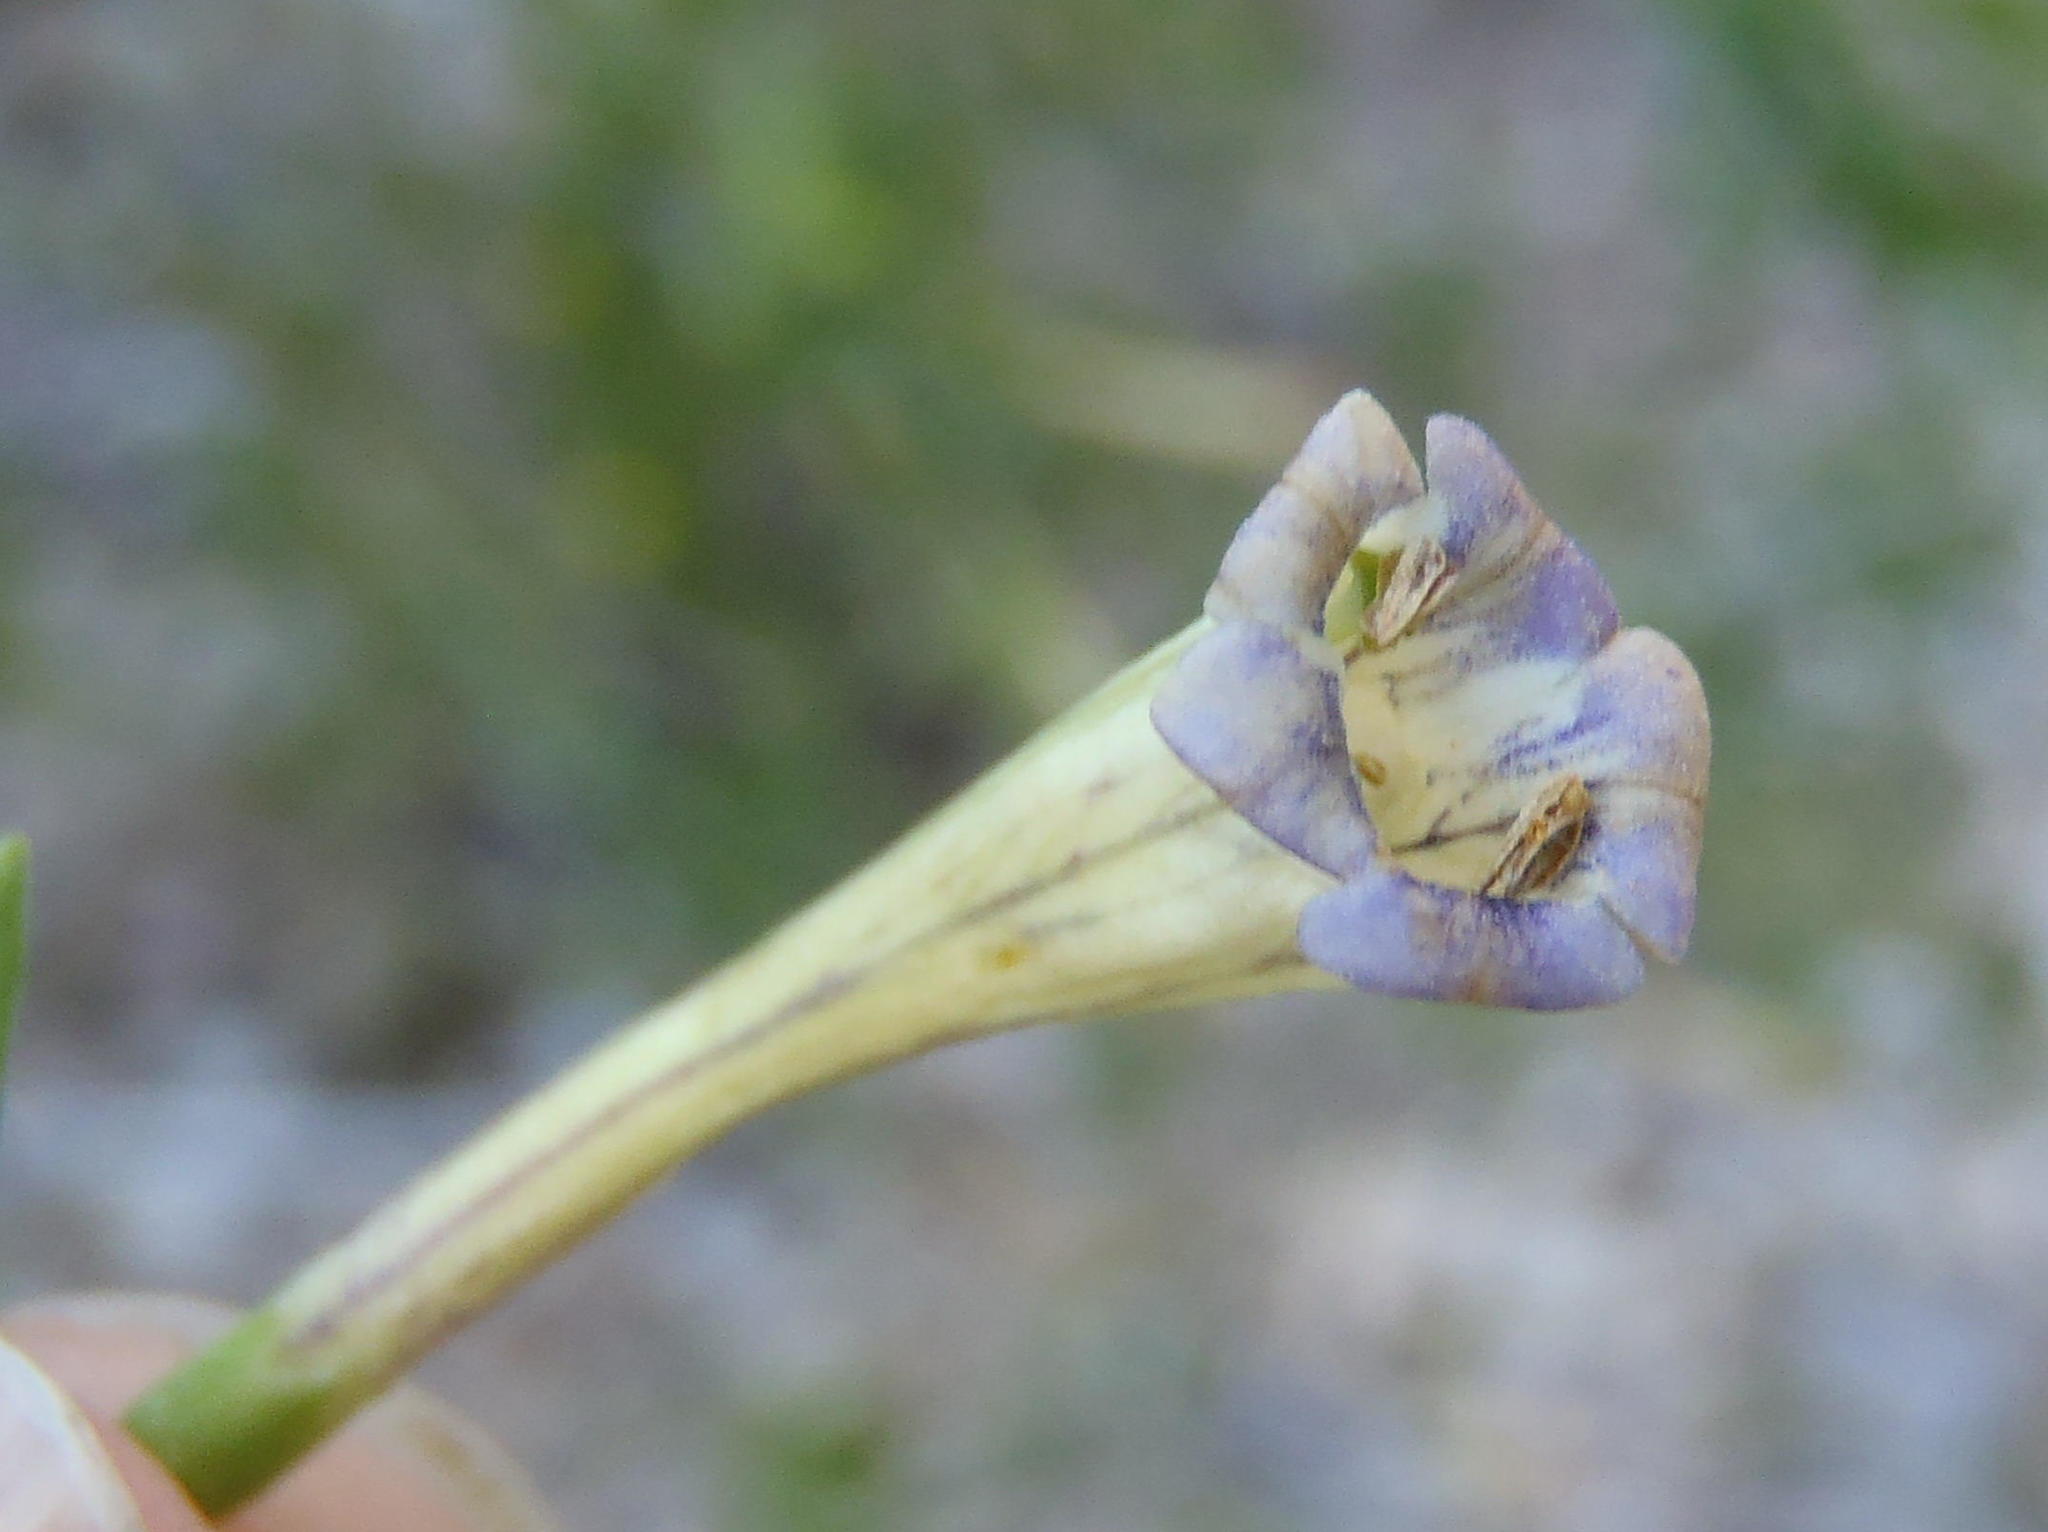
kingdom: Plantae
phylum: Tracheophyta
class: Magnoliopsida
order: Solanales
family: Solanaceae
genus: Lycium
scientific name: Lycium oxycarpum
